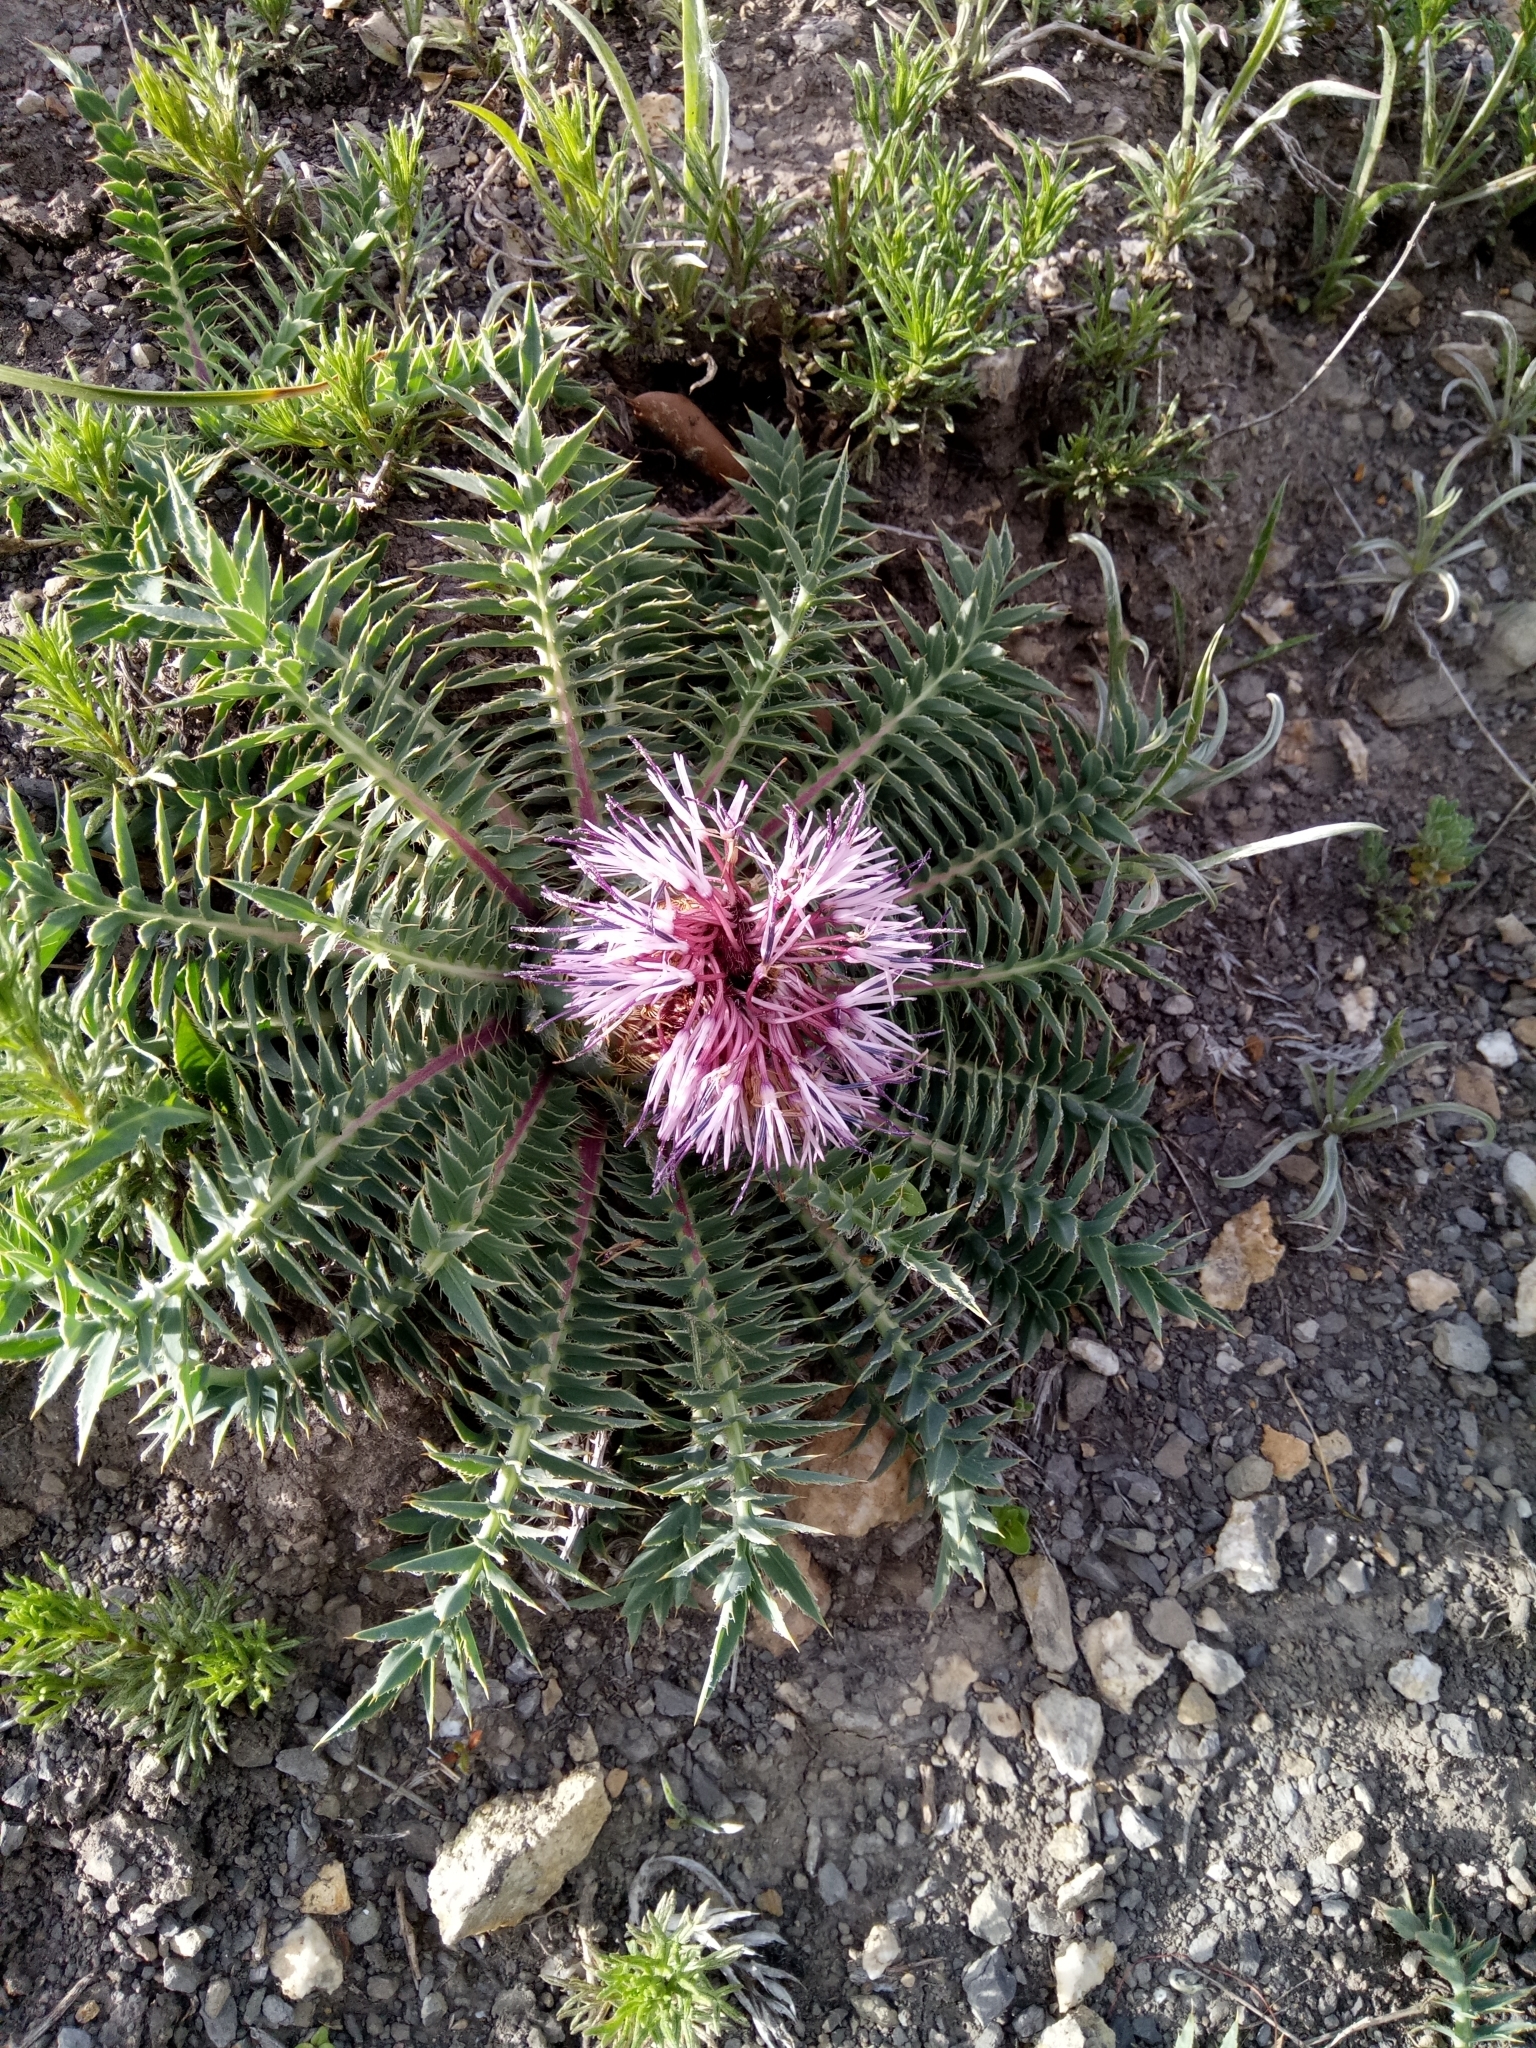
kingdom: Plantae
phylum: Tracheophyta
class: Magnoliopsida
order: Asterales
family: Asteraceae
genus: Carduncellus
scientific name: Carduncellus
